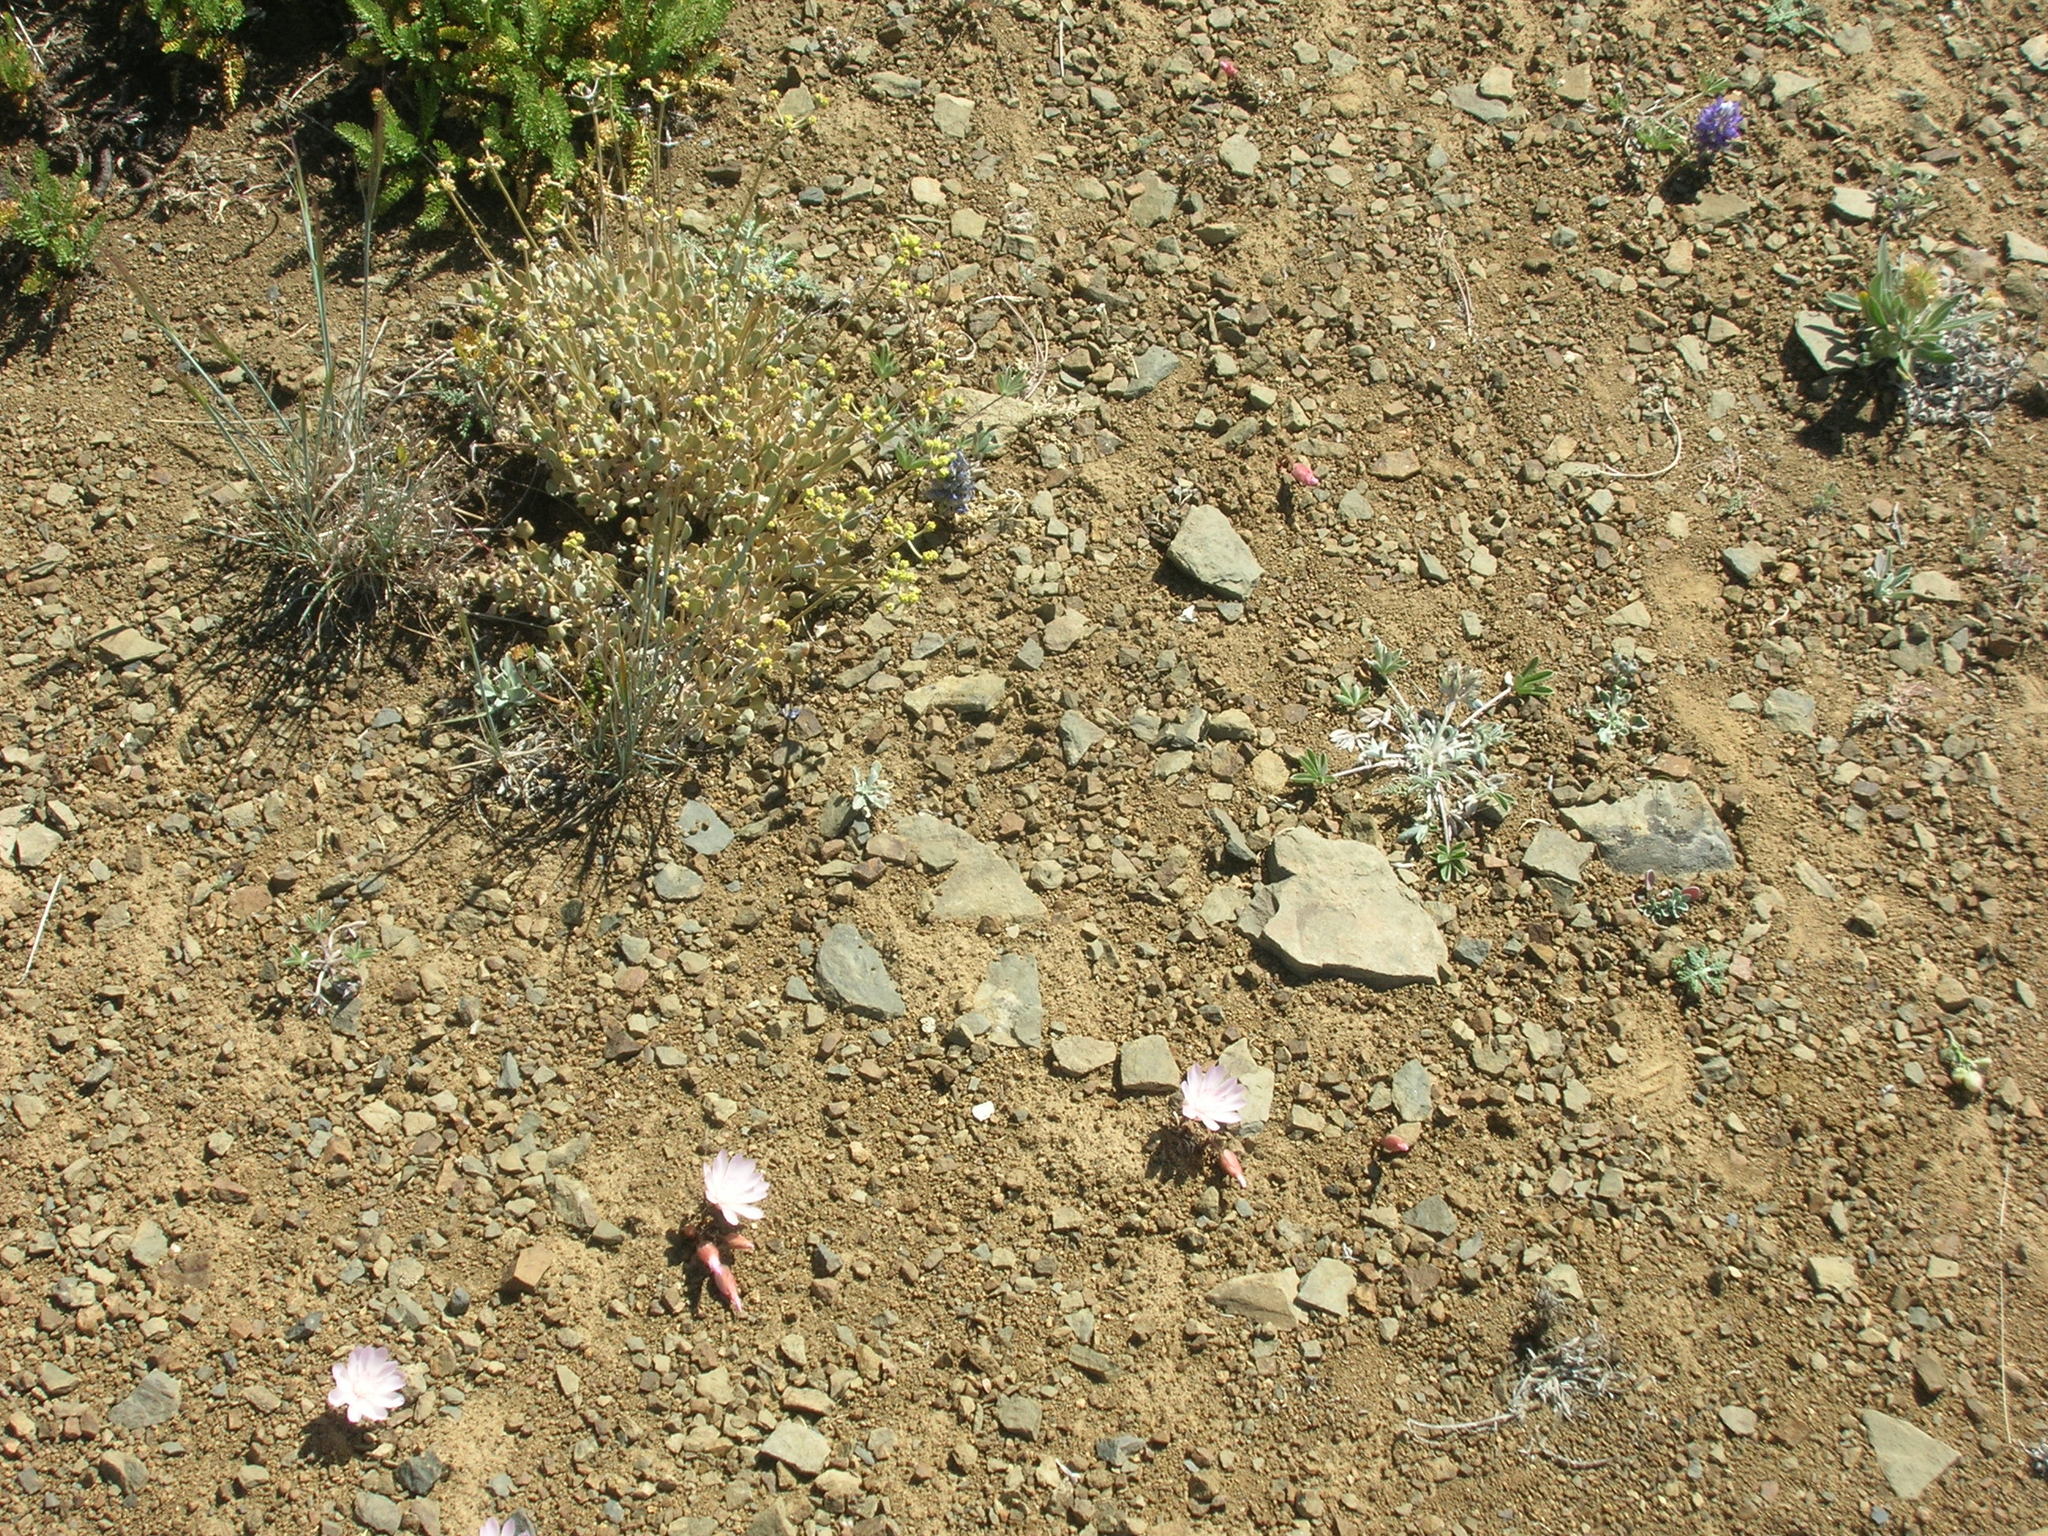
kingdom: Plantae
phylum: Tracheophyta
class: Magnoliopsida
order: Caryophyllales
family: Montiaceae
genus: Lewisia
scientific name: Lewisia rediviva
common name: Bitter-root
